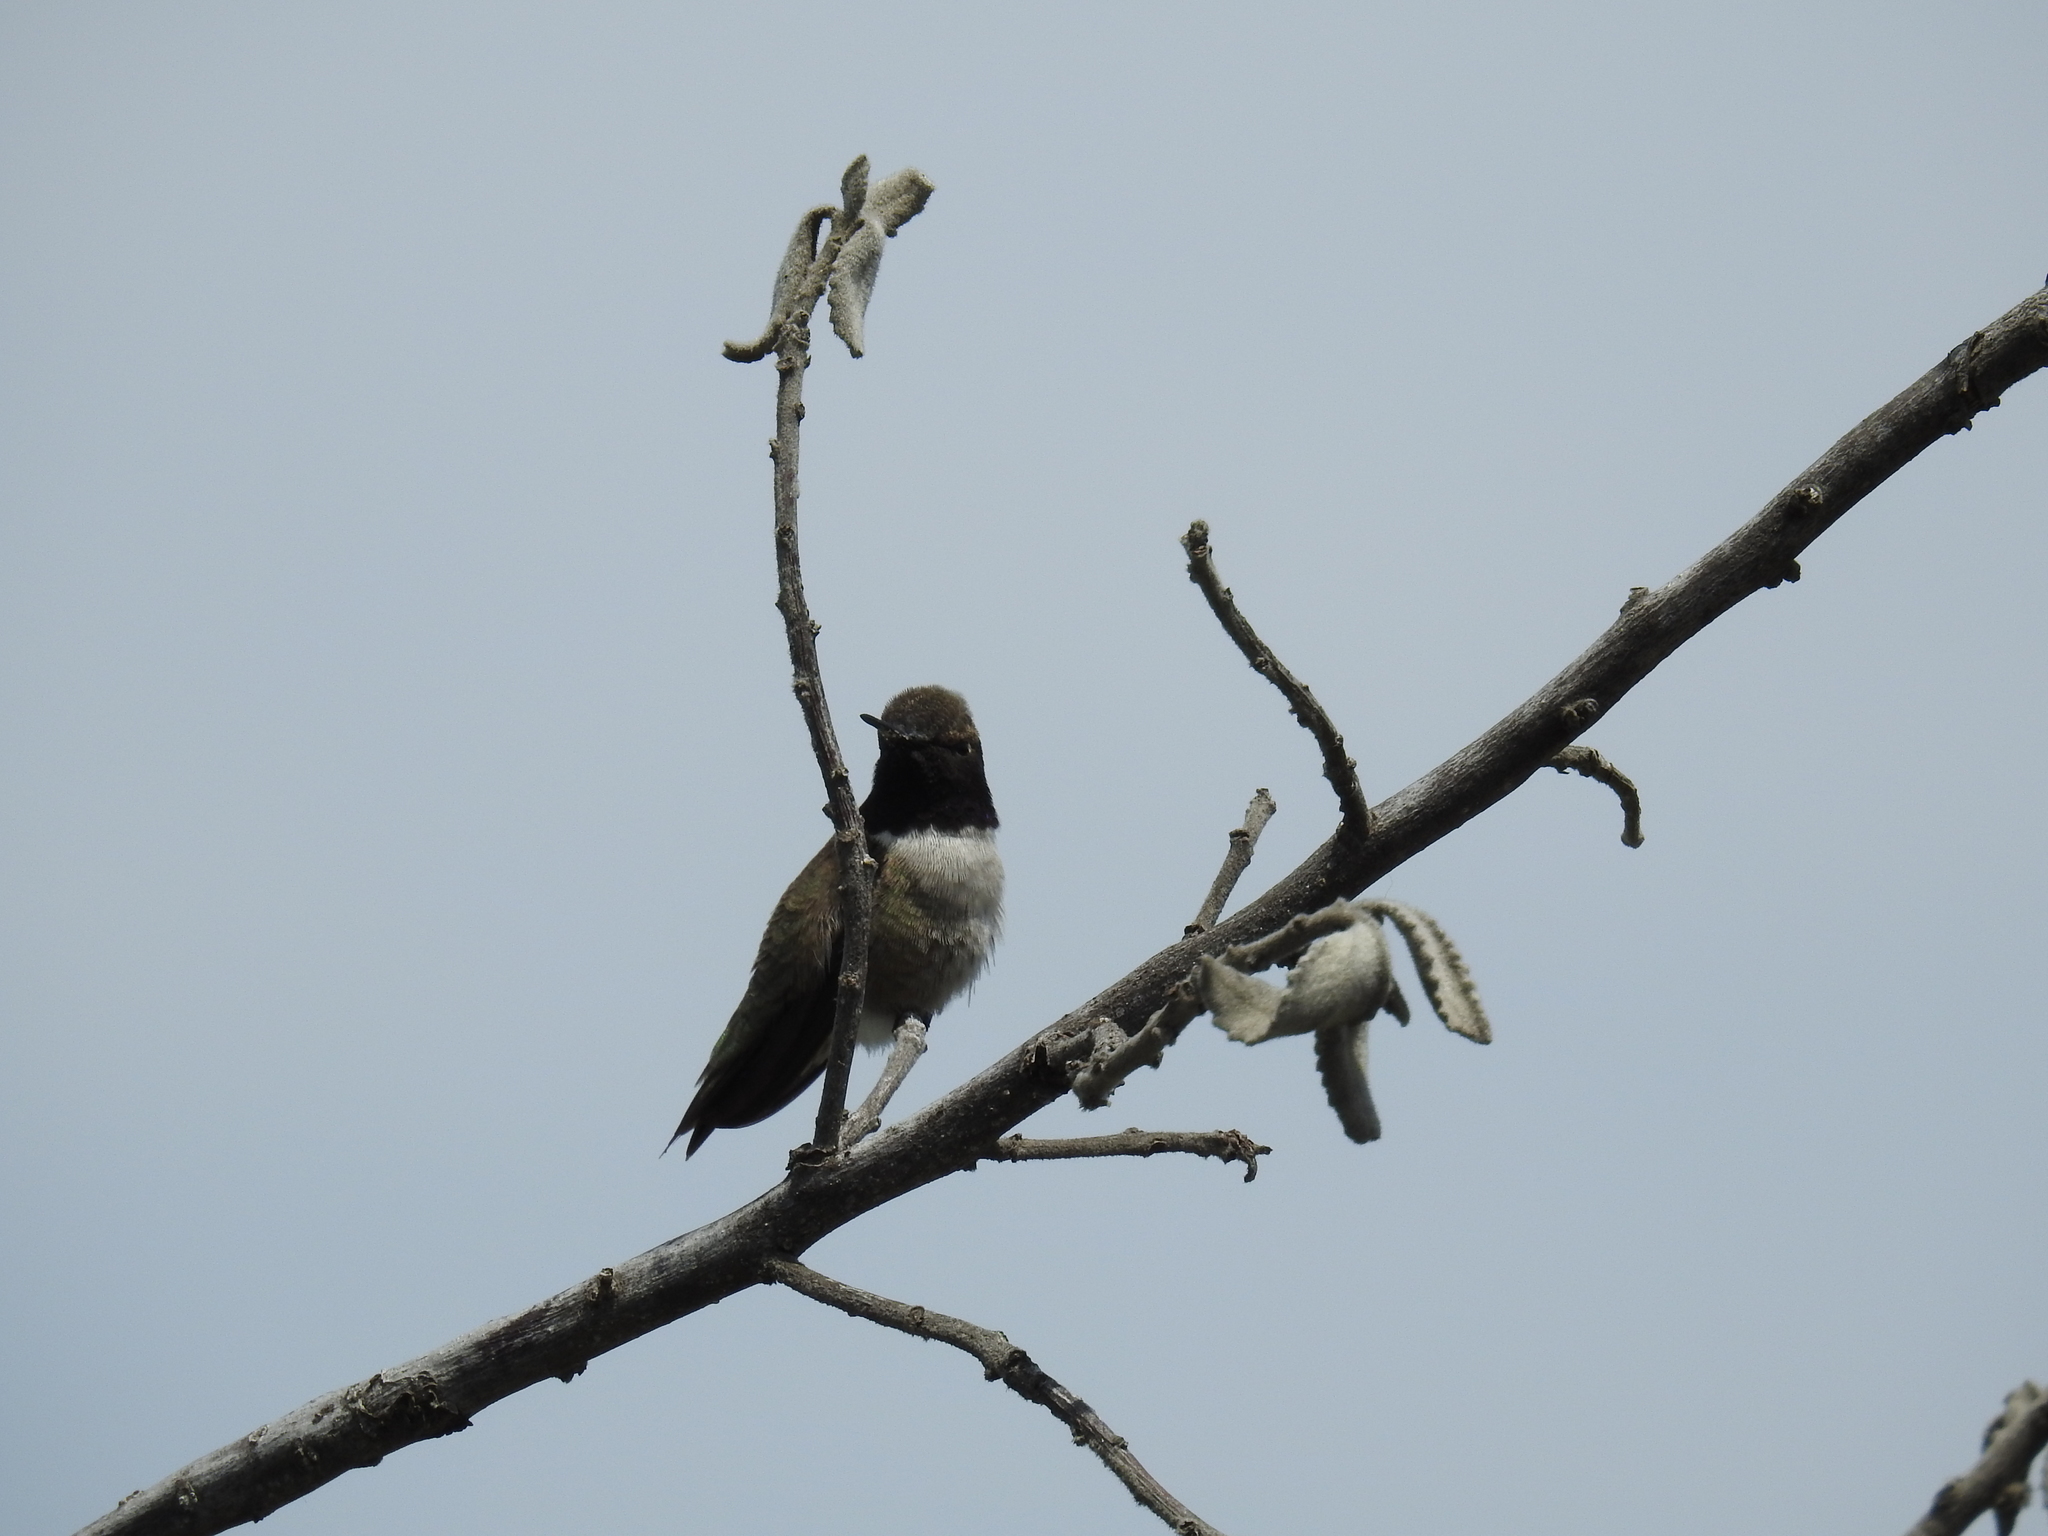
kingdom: Animalia
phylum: Chordata
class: Aves
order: Apodiformes
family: Trochilidae
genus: Archilochus
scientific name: Archilochus alexandri
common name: Black-chinned hummingbird
